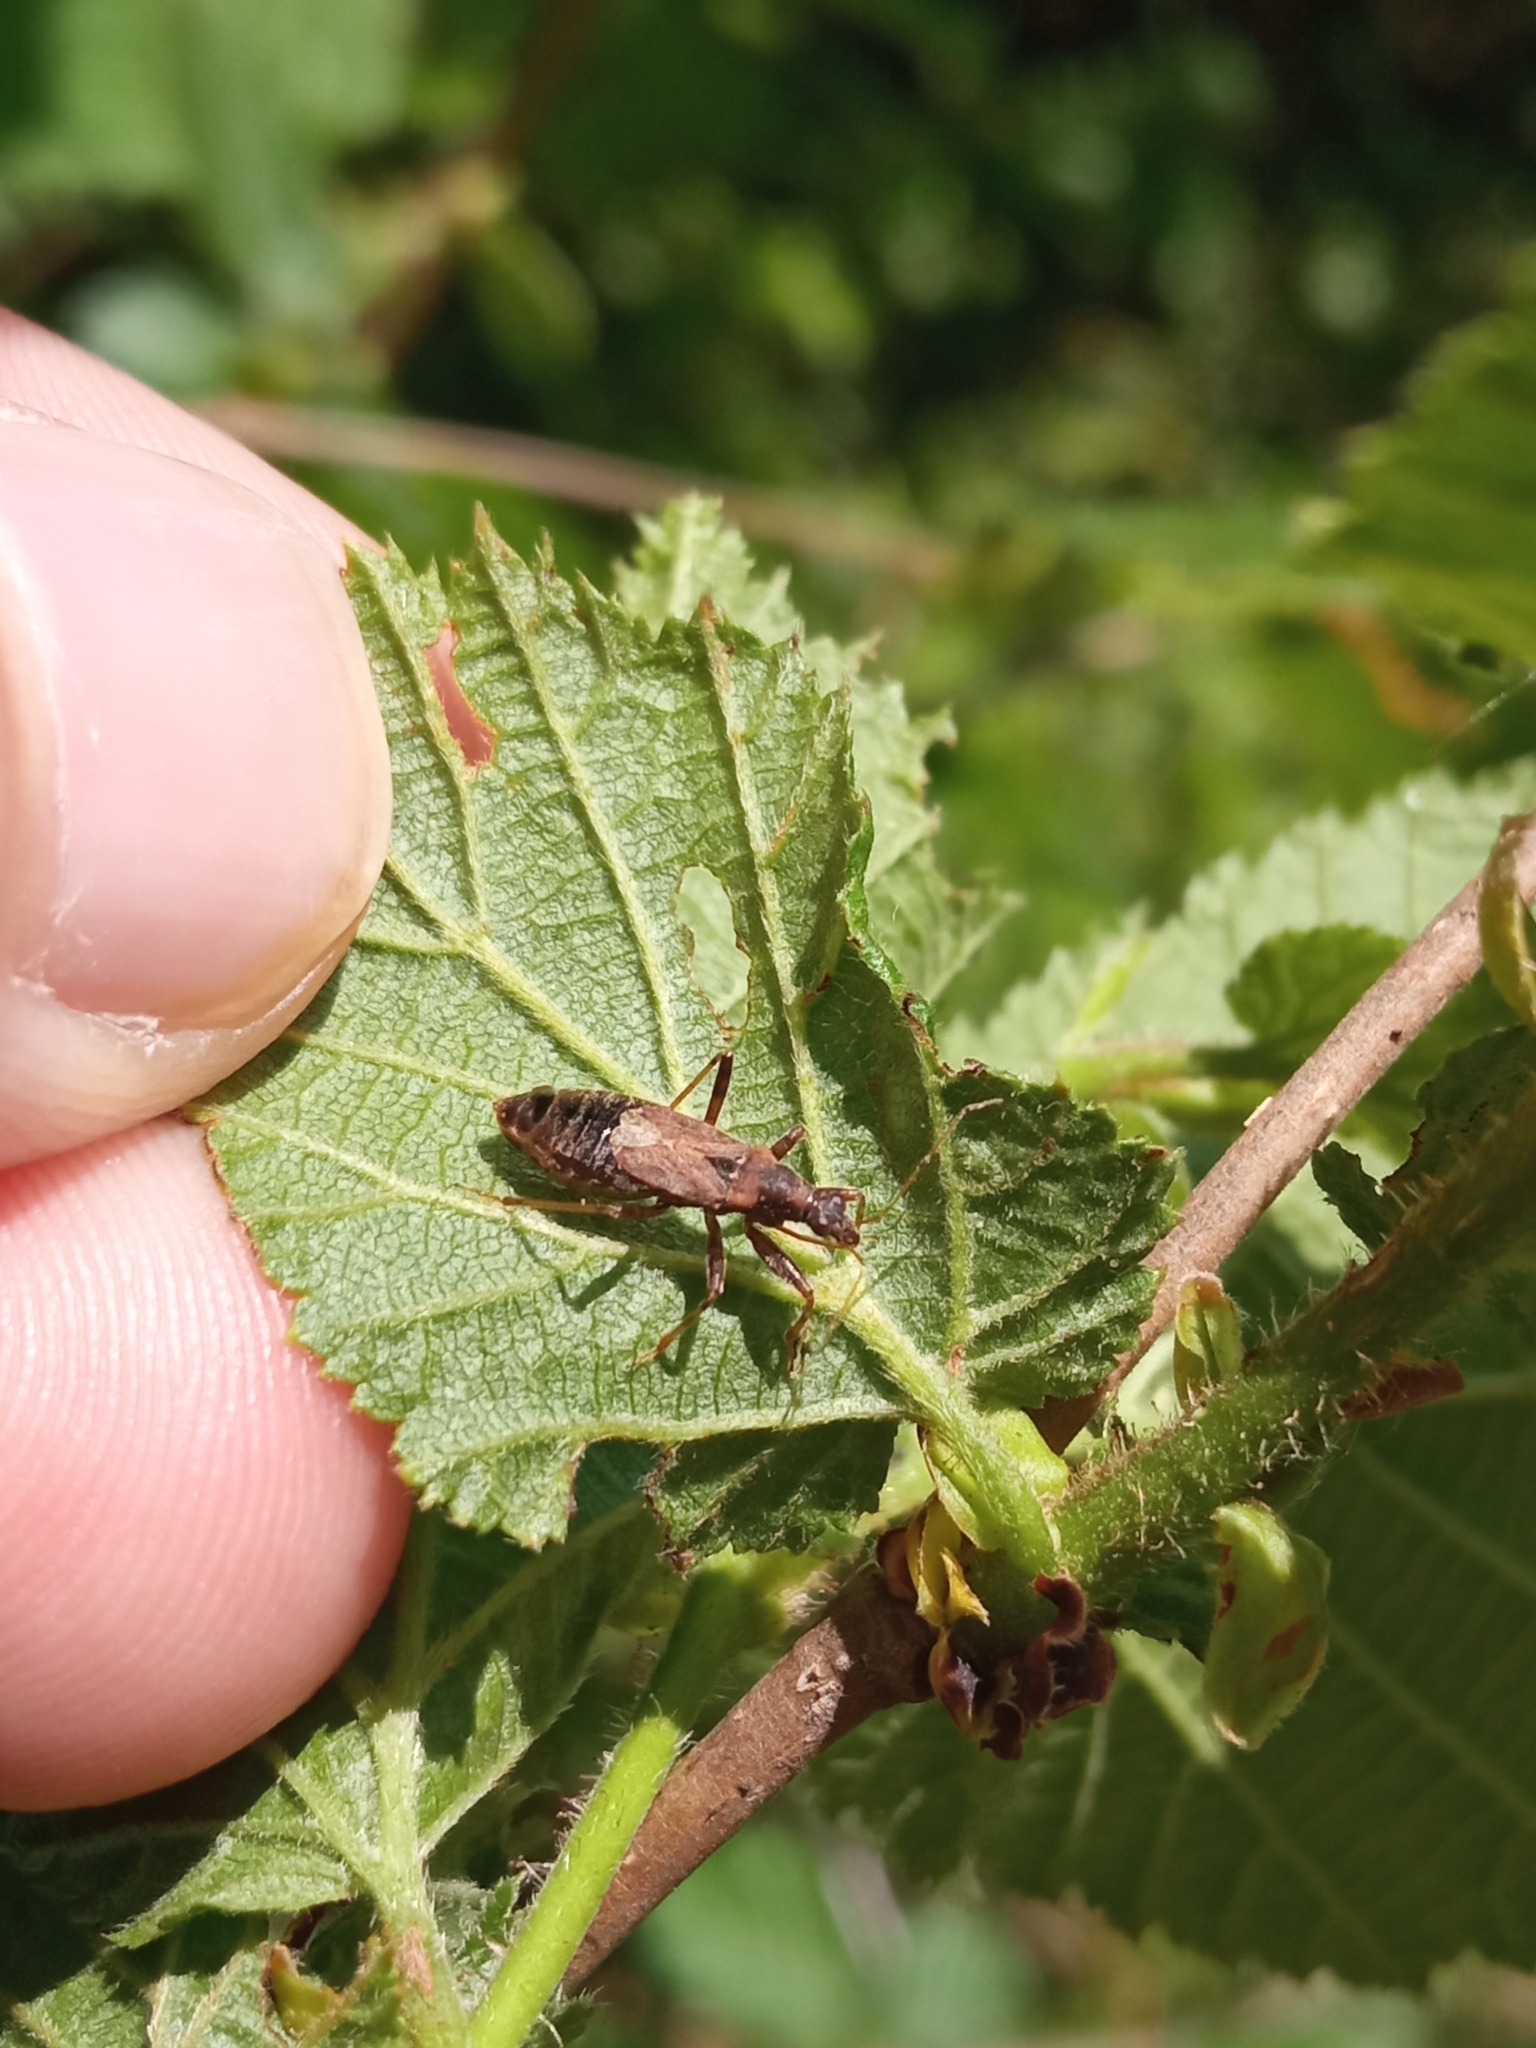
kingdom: Animalia
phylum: Arthropoda
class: Insecta
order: Hemiptera
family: Nabidae
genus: Himacerus
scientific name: Himacerus mirmicoides
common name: Ant damsel bug
